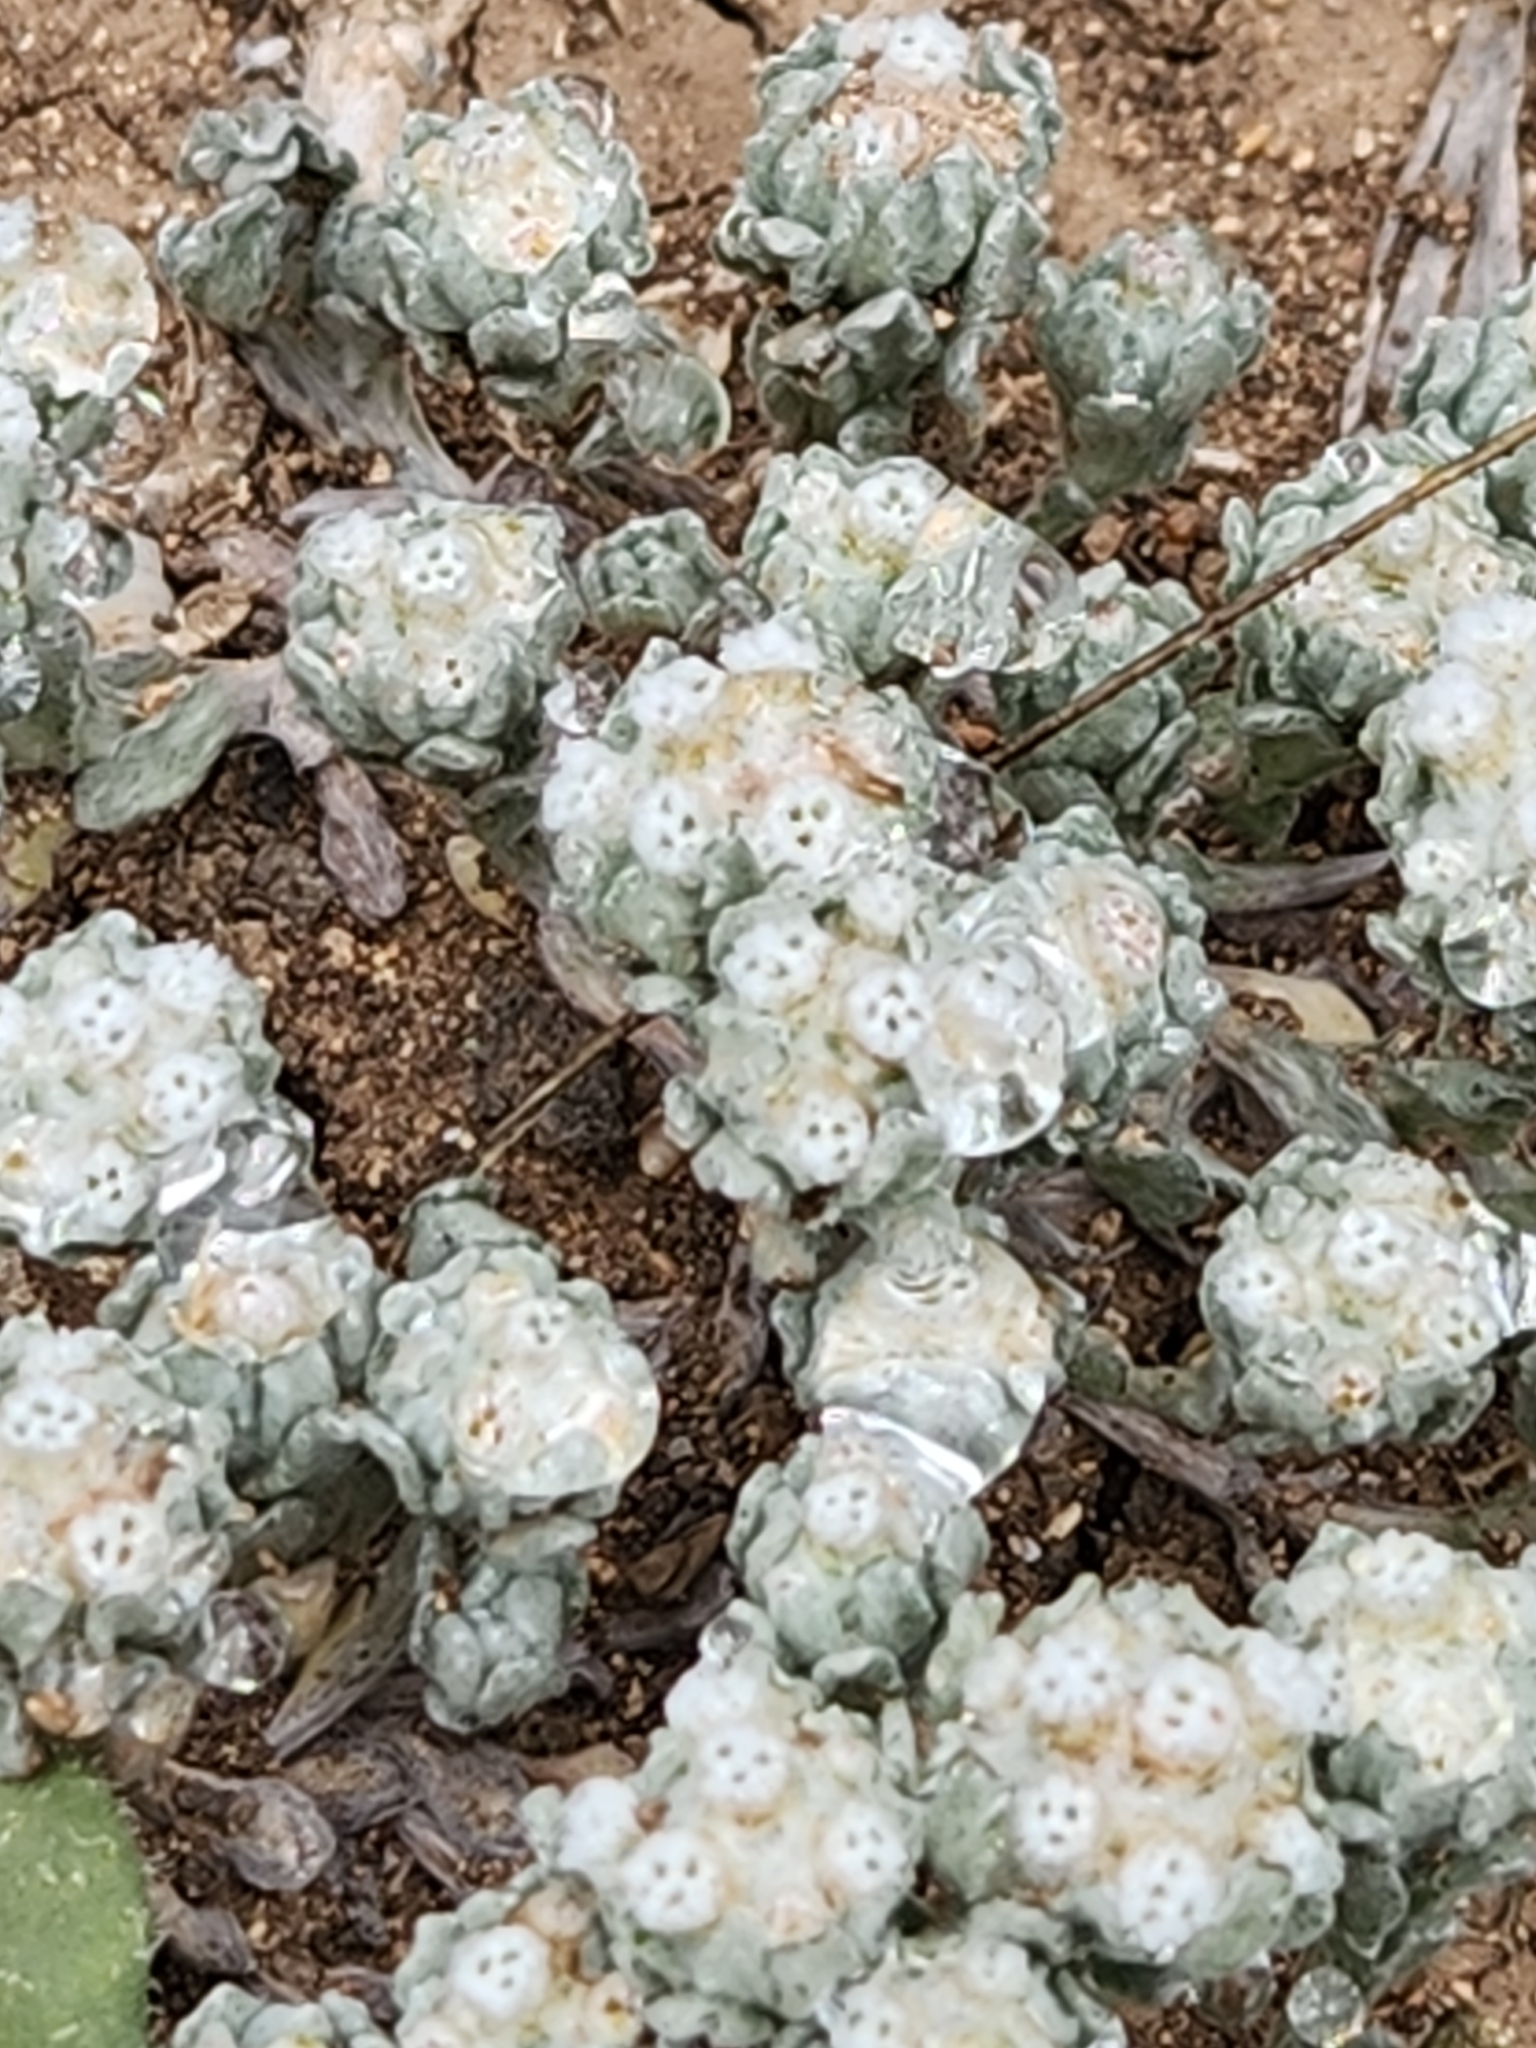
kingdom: Plantae
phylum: Tracheophyta
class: Magnoliopsida
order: Asterales
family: Asteraceae
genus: Diaperia
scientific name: Diaperia verna
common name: Many-stem rabbit-tobacco
